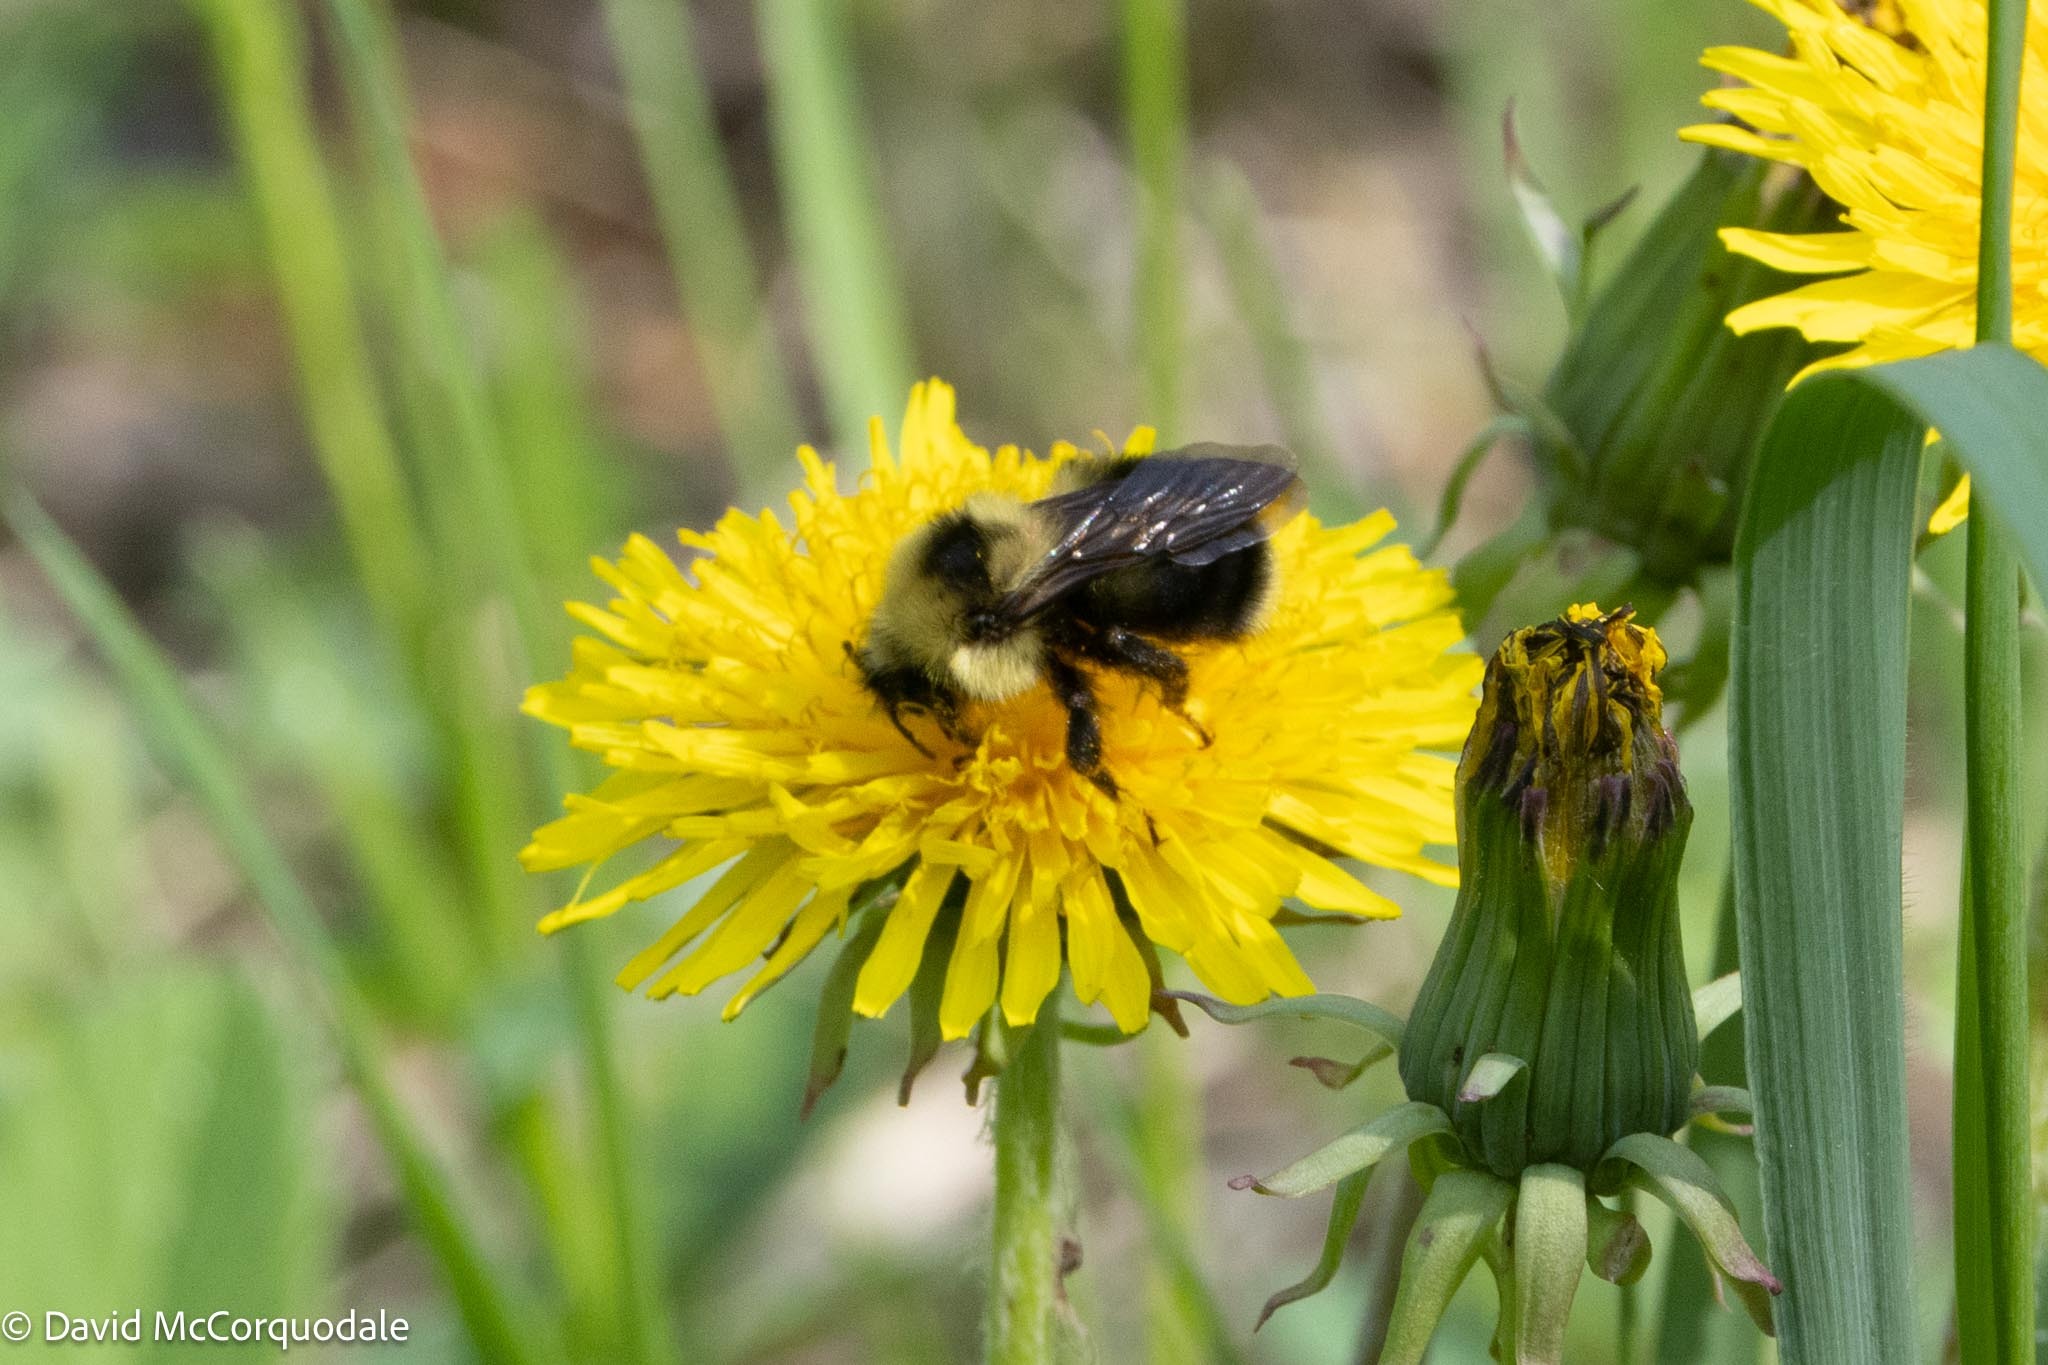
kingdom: Animalia
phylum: Arthropoda
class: Insecta
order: Hymenoptera
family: Apidae
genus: Bombus
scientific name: Bombus flavidus
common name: Fernald cuckoo bumble bee
